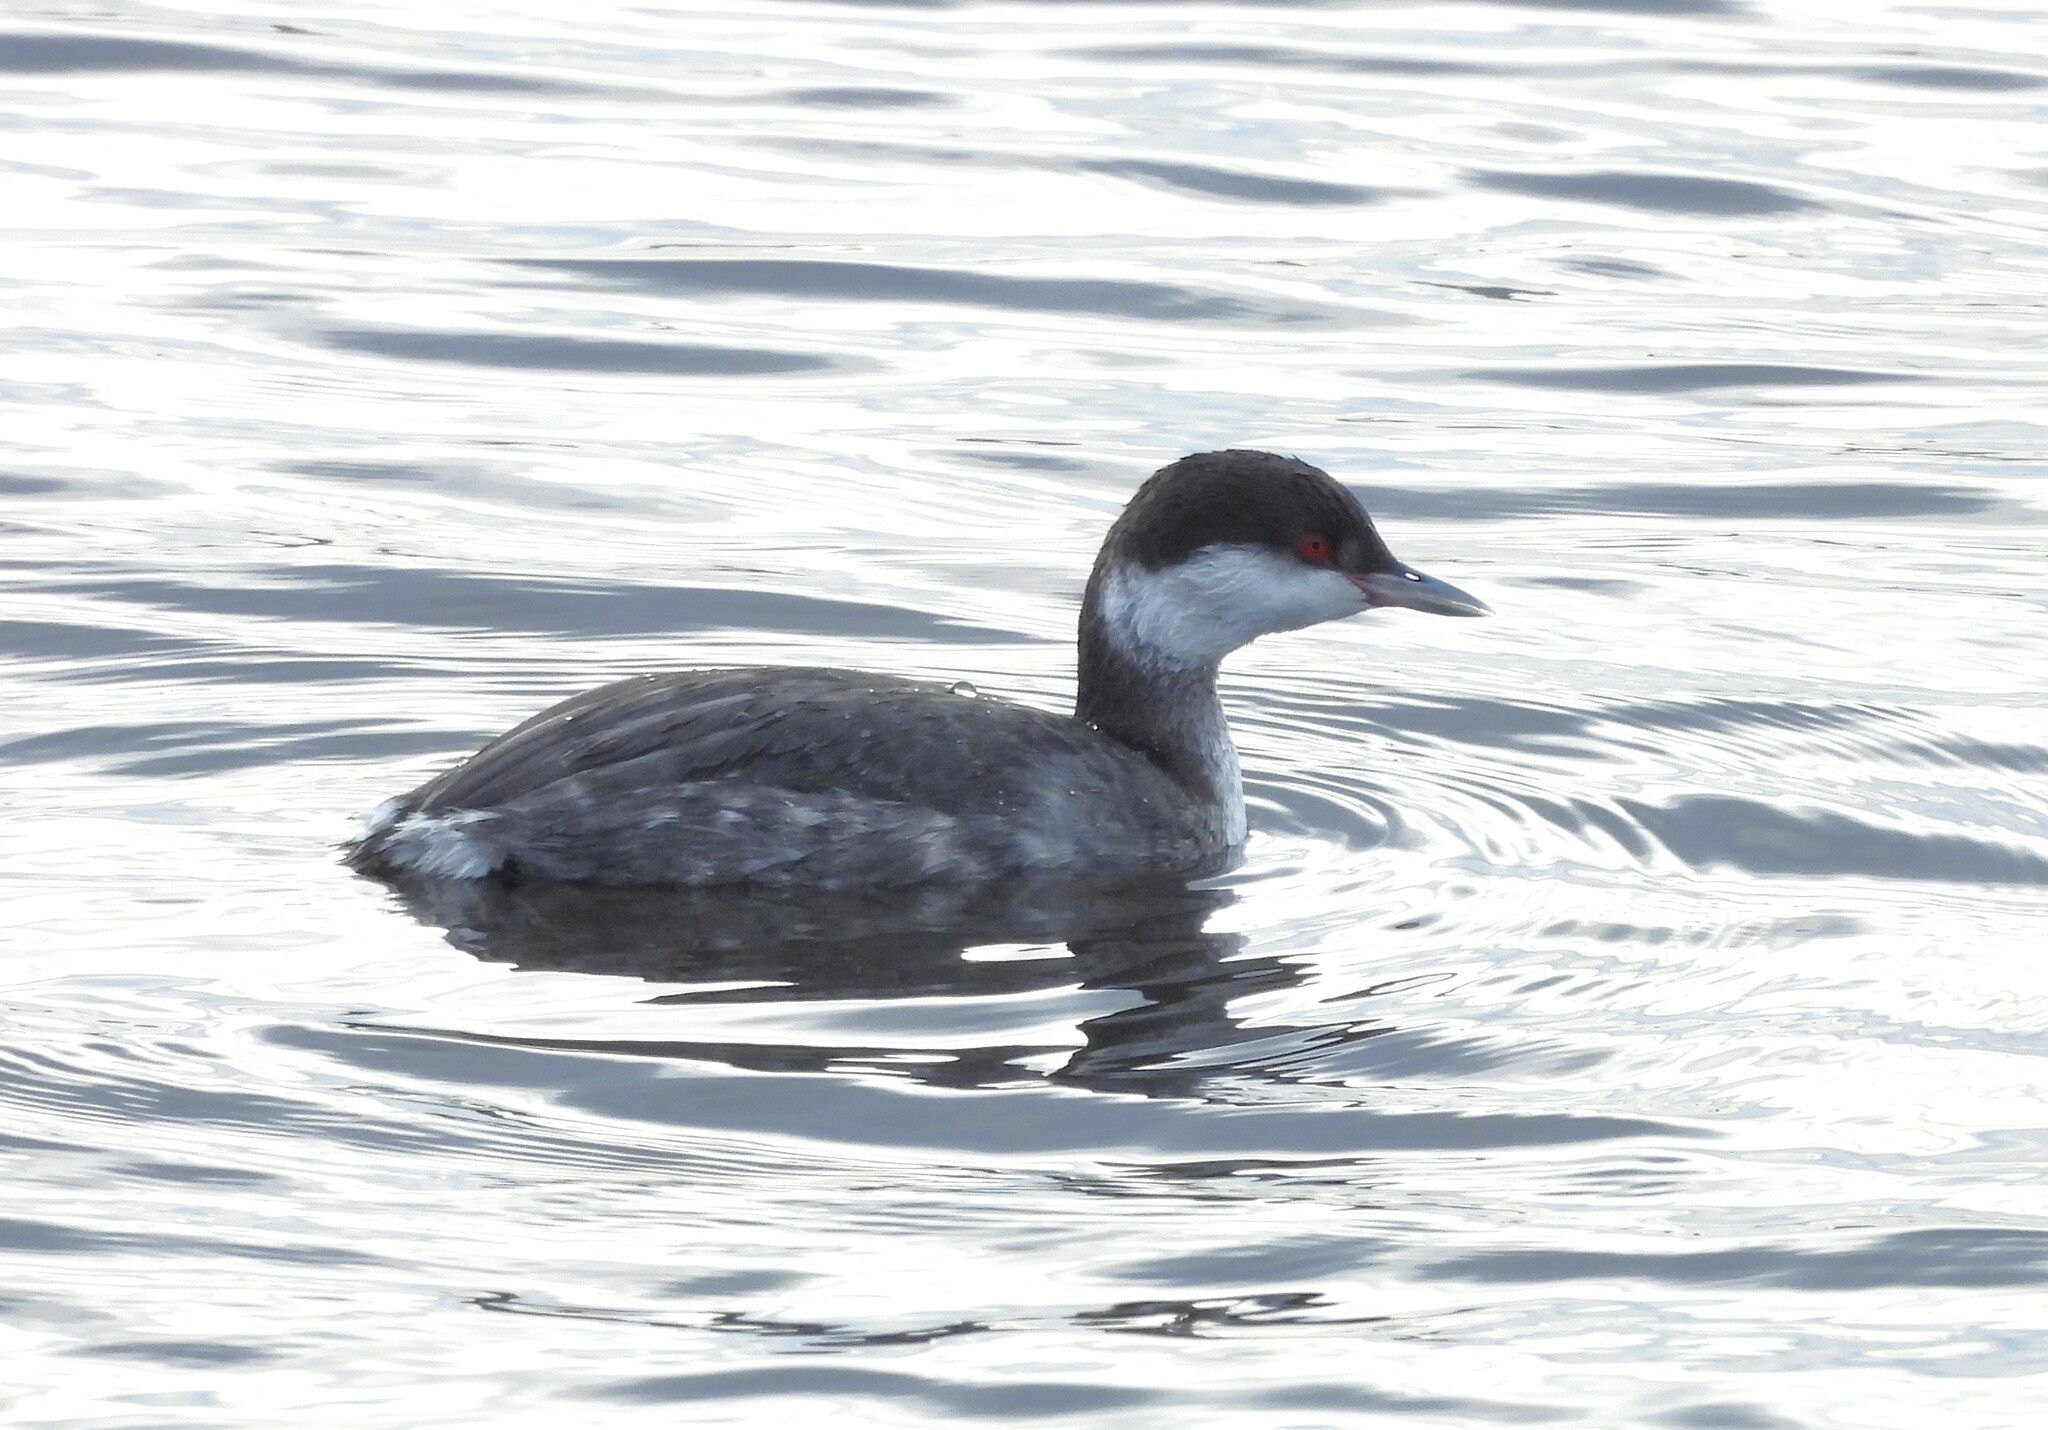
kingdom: Animalia
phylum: Chordata
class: Aves
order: Podicipediformes
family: Podicipedidae
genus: Podiceps
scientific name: Podiceps auritus
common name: Horned grebe
